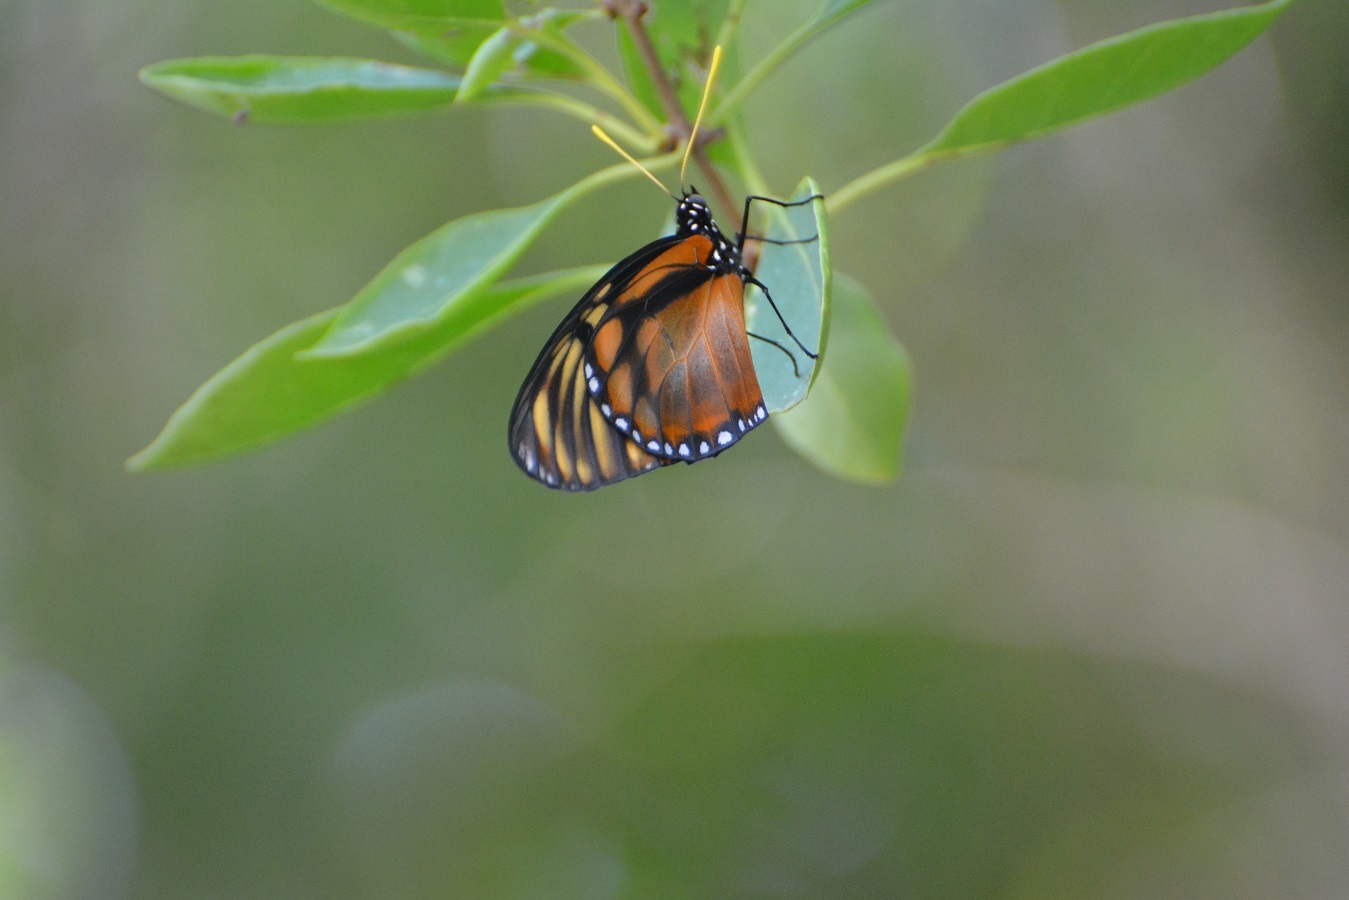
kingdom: Animalia
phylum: Arthropoda
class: Insecta
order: Lepidoptera
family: Nymphalidae
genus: Lycorea
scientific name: Lycorea ilione
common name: Clearwing mimic-queen
